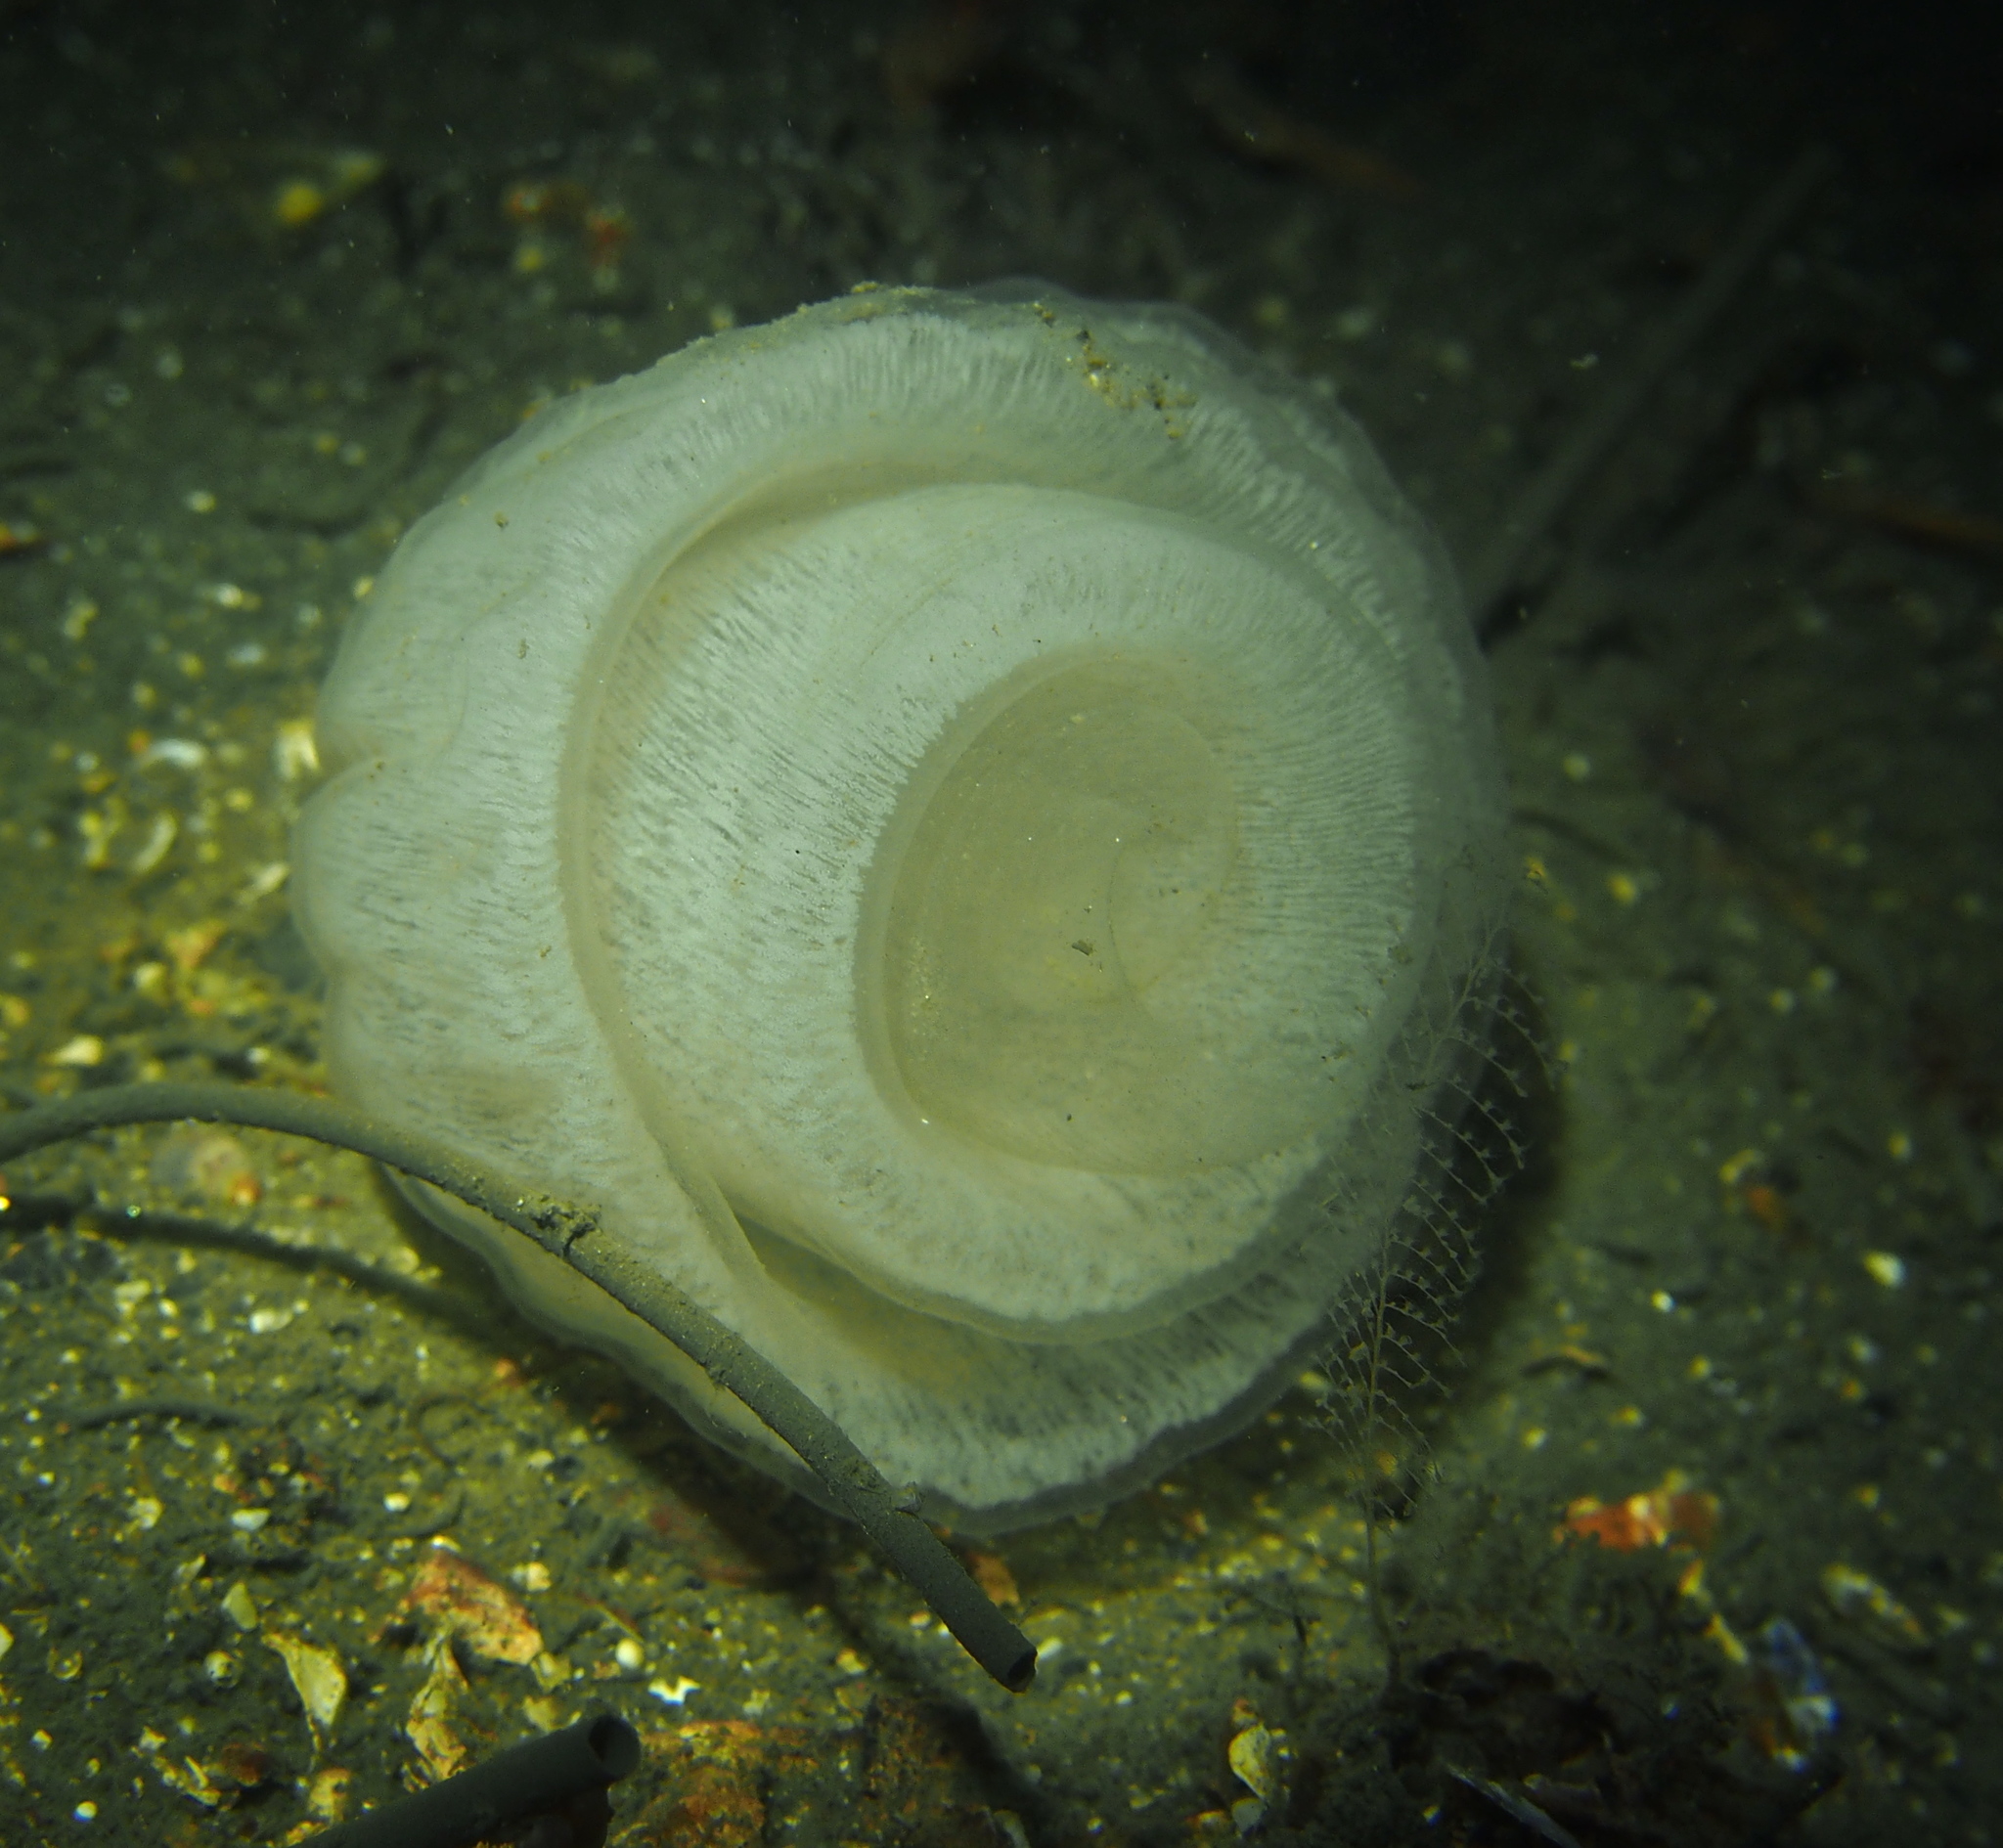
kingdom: Animalia
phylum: Mollusca
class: Gastropoda
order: Pleurobranchida
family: Pleurobranchidae
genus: Pleurobranchus
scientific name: Pleurobranchus membranaceus
